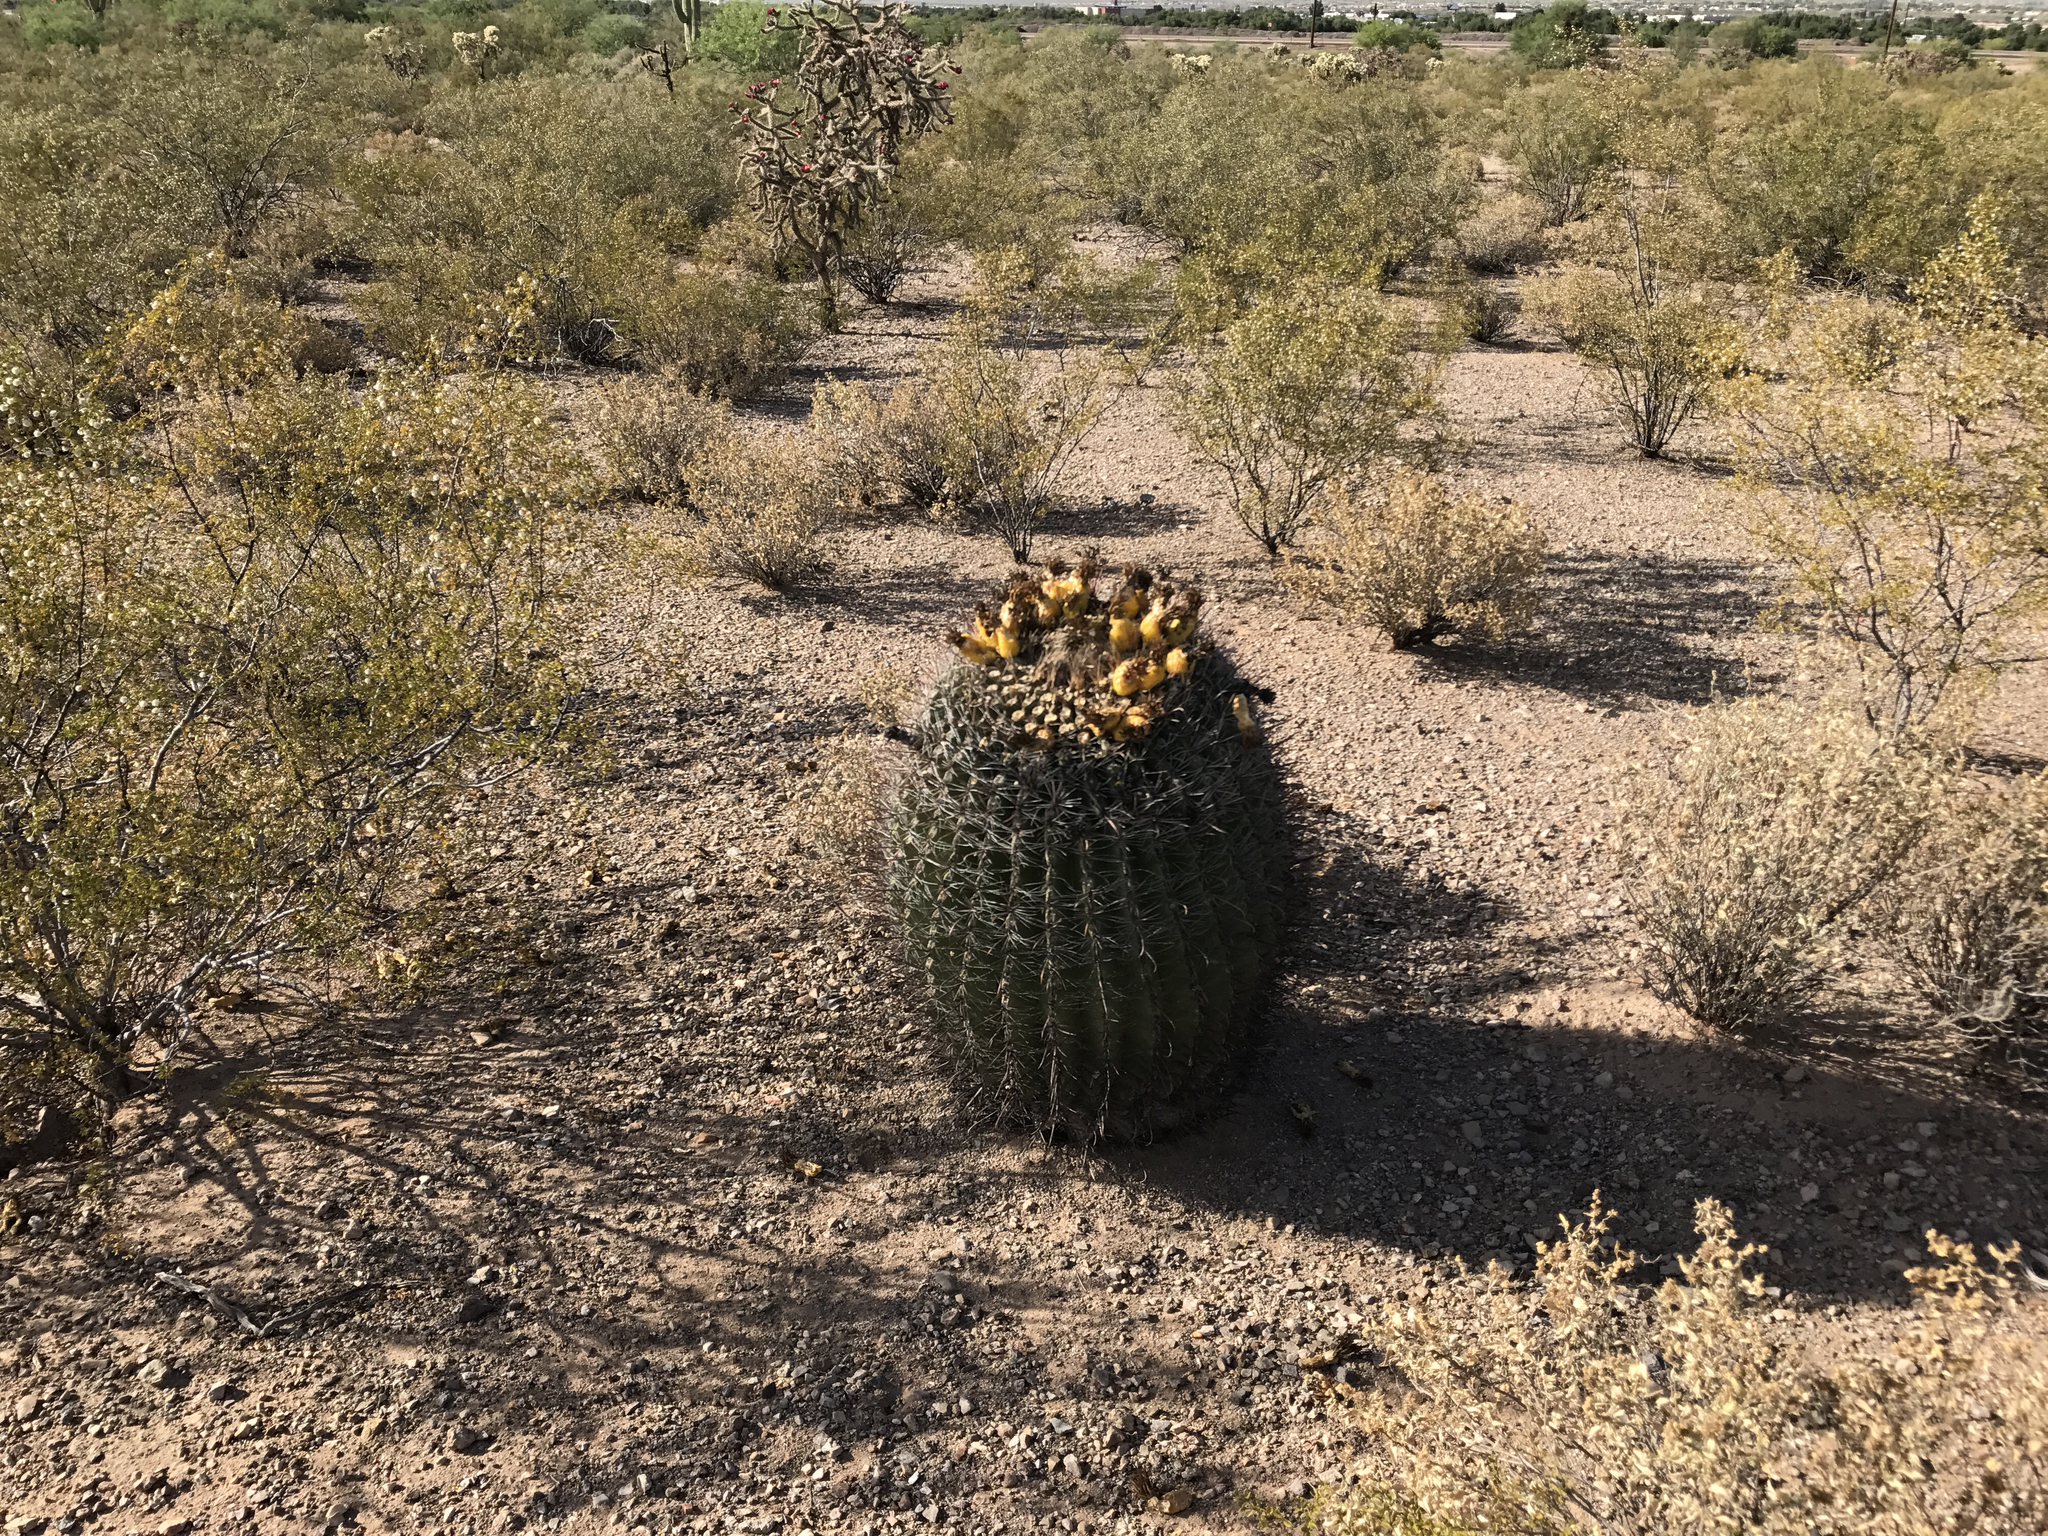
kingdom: Plantae
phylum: Tracheophyta
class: Magnoliopsida
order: Caryophyllales
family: Cactaceae
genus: Ferocactus
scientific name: Ferocactus wislizeni
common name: Candy barrel cactus
